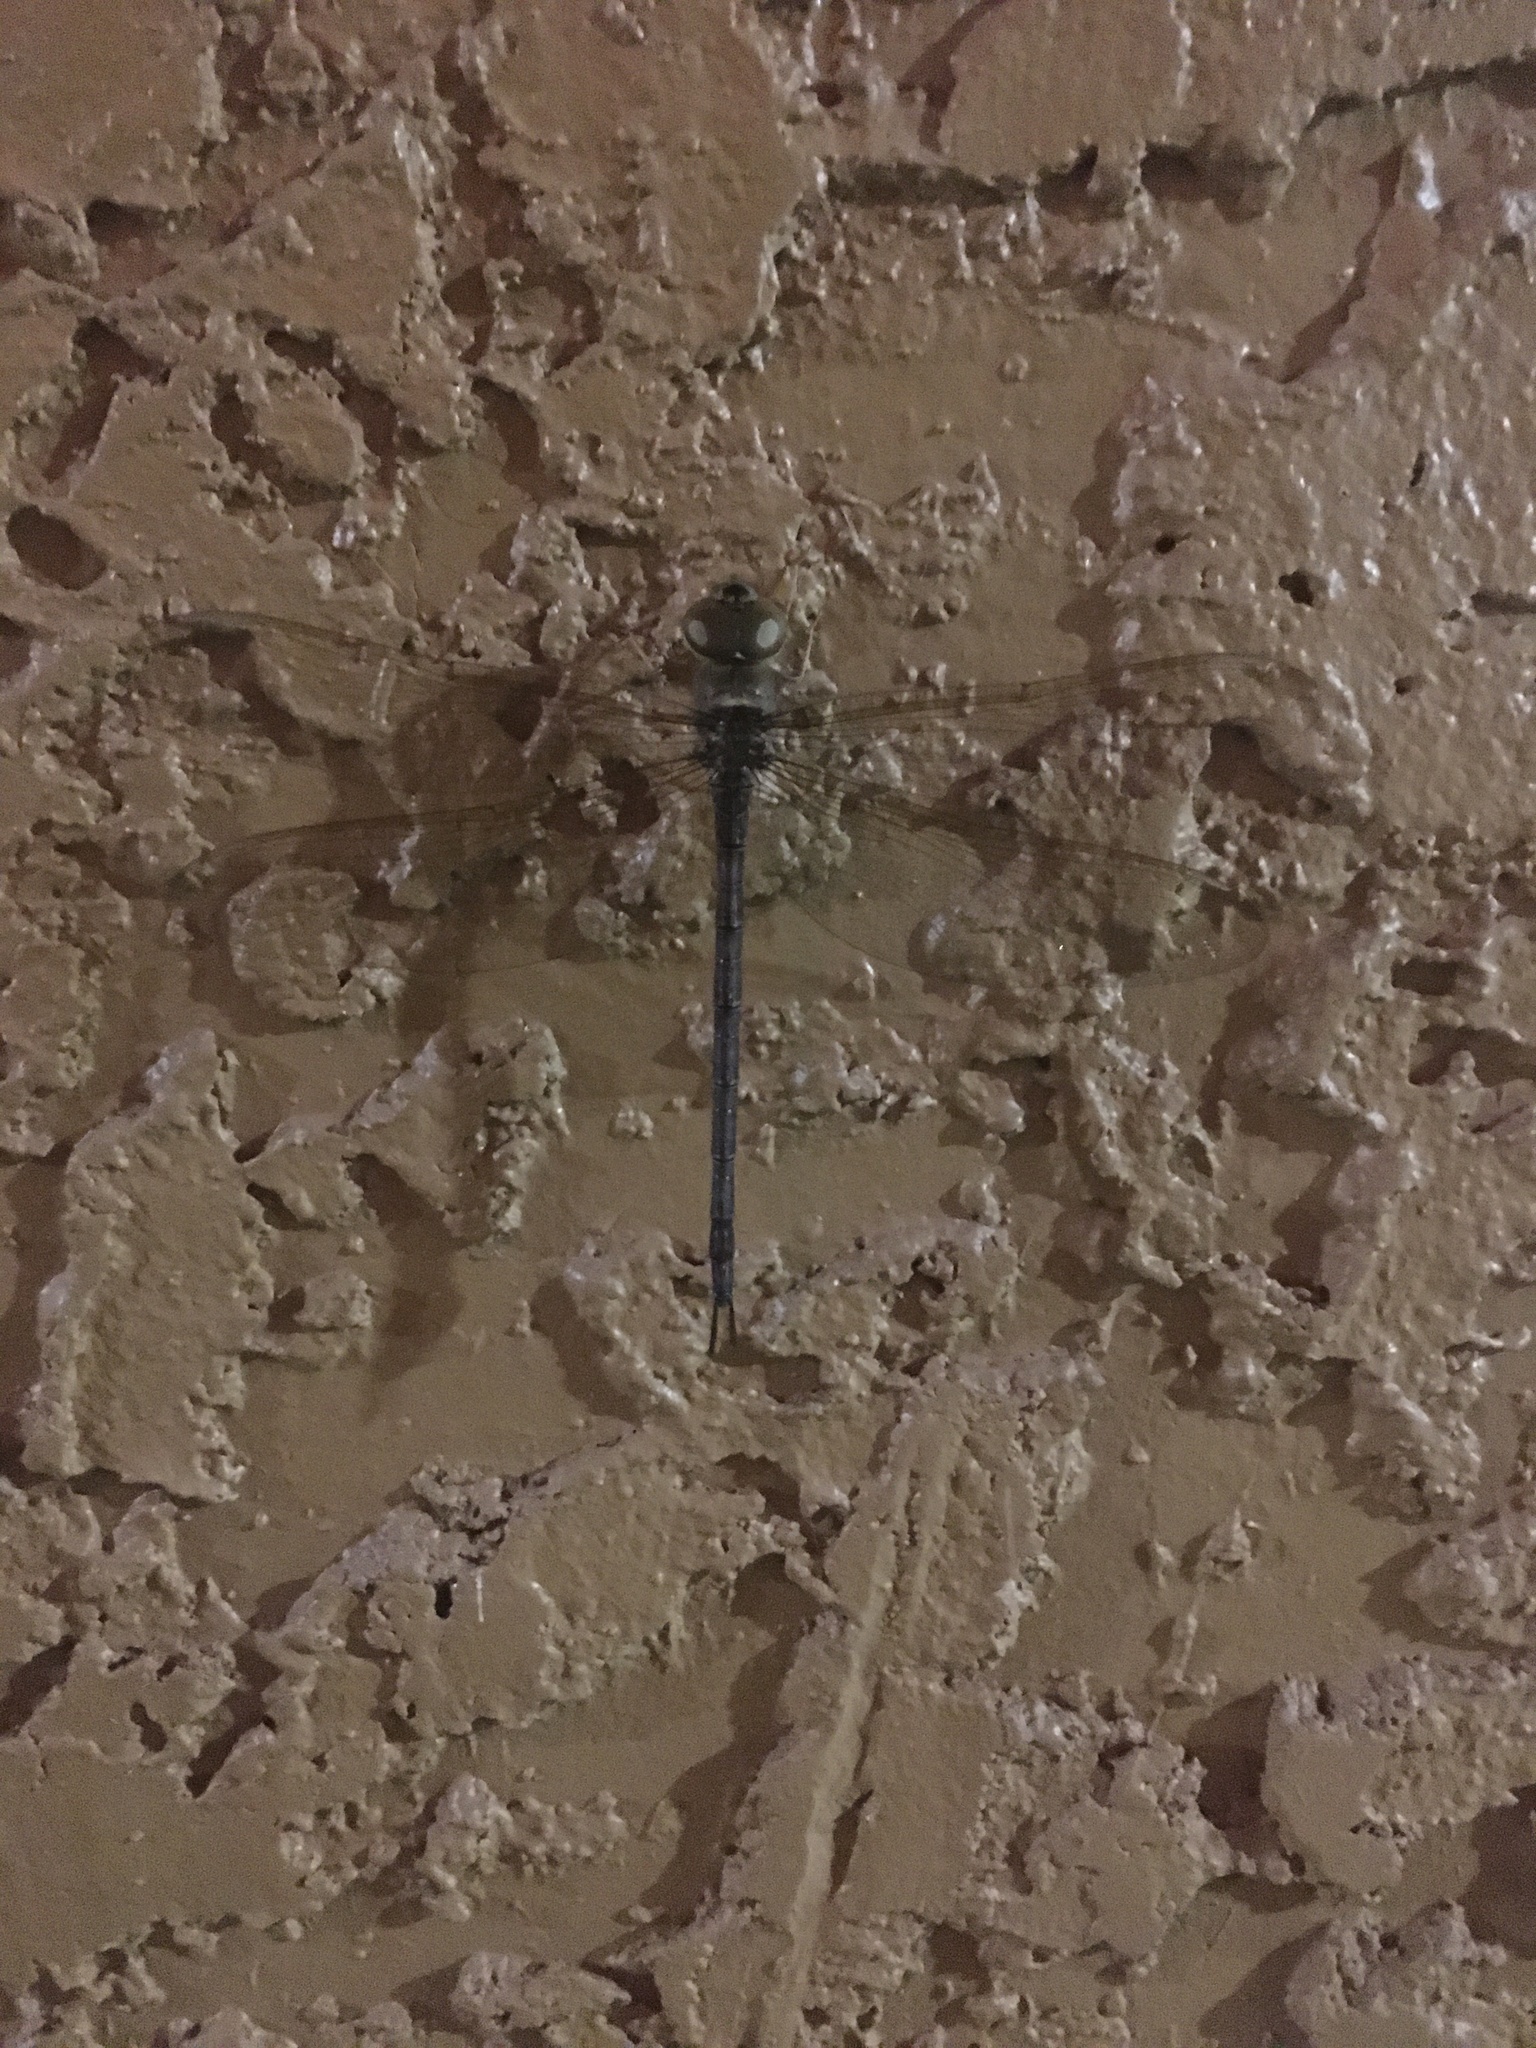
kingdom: Animalia
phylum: Arthropoda
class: Insecta
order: Odonata
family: Aeshnidae
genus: Gynacantha
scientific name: Gynacantha nervosa
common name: Twilight darner
